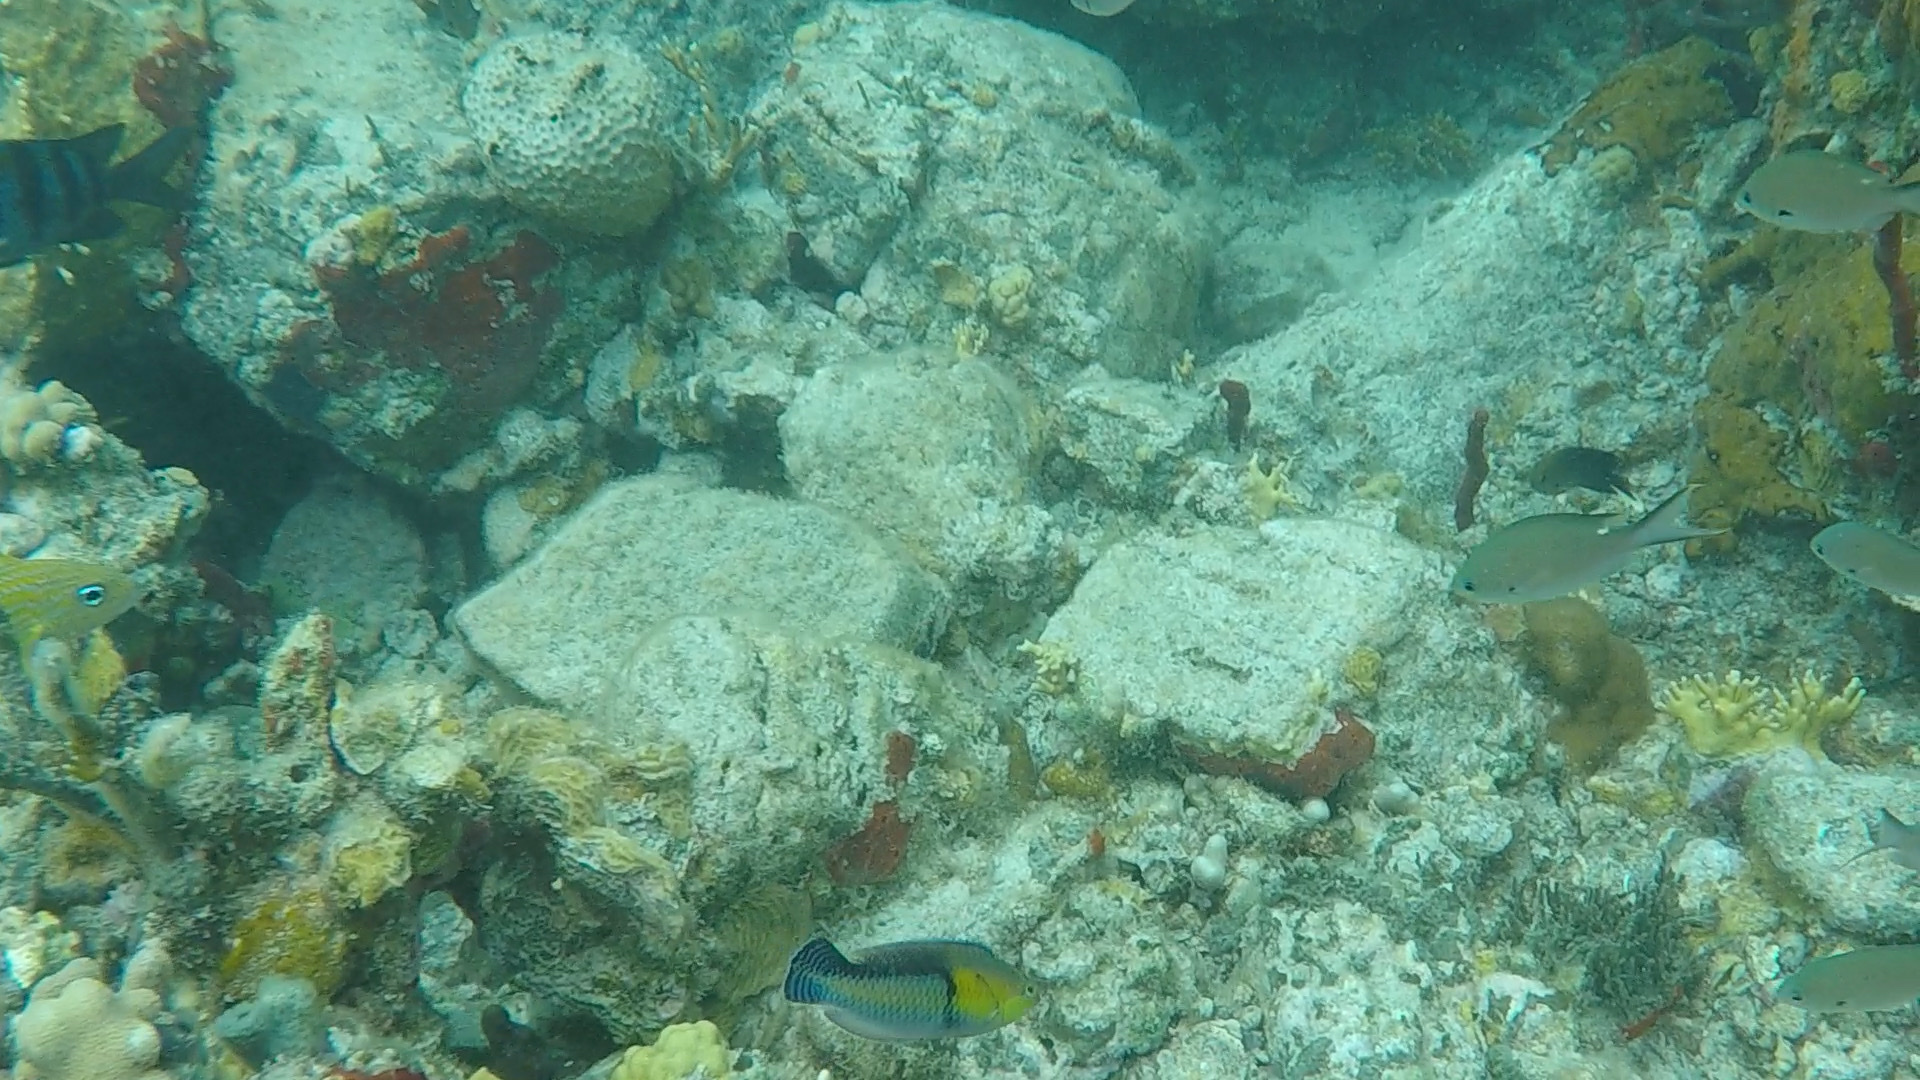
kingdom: Animalia
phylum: Chordata
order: Perciformes
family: Labridae
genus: Halichoeres
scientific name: Halichoeres garnoti
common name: Yellowhead wrasse
